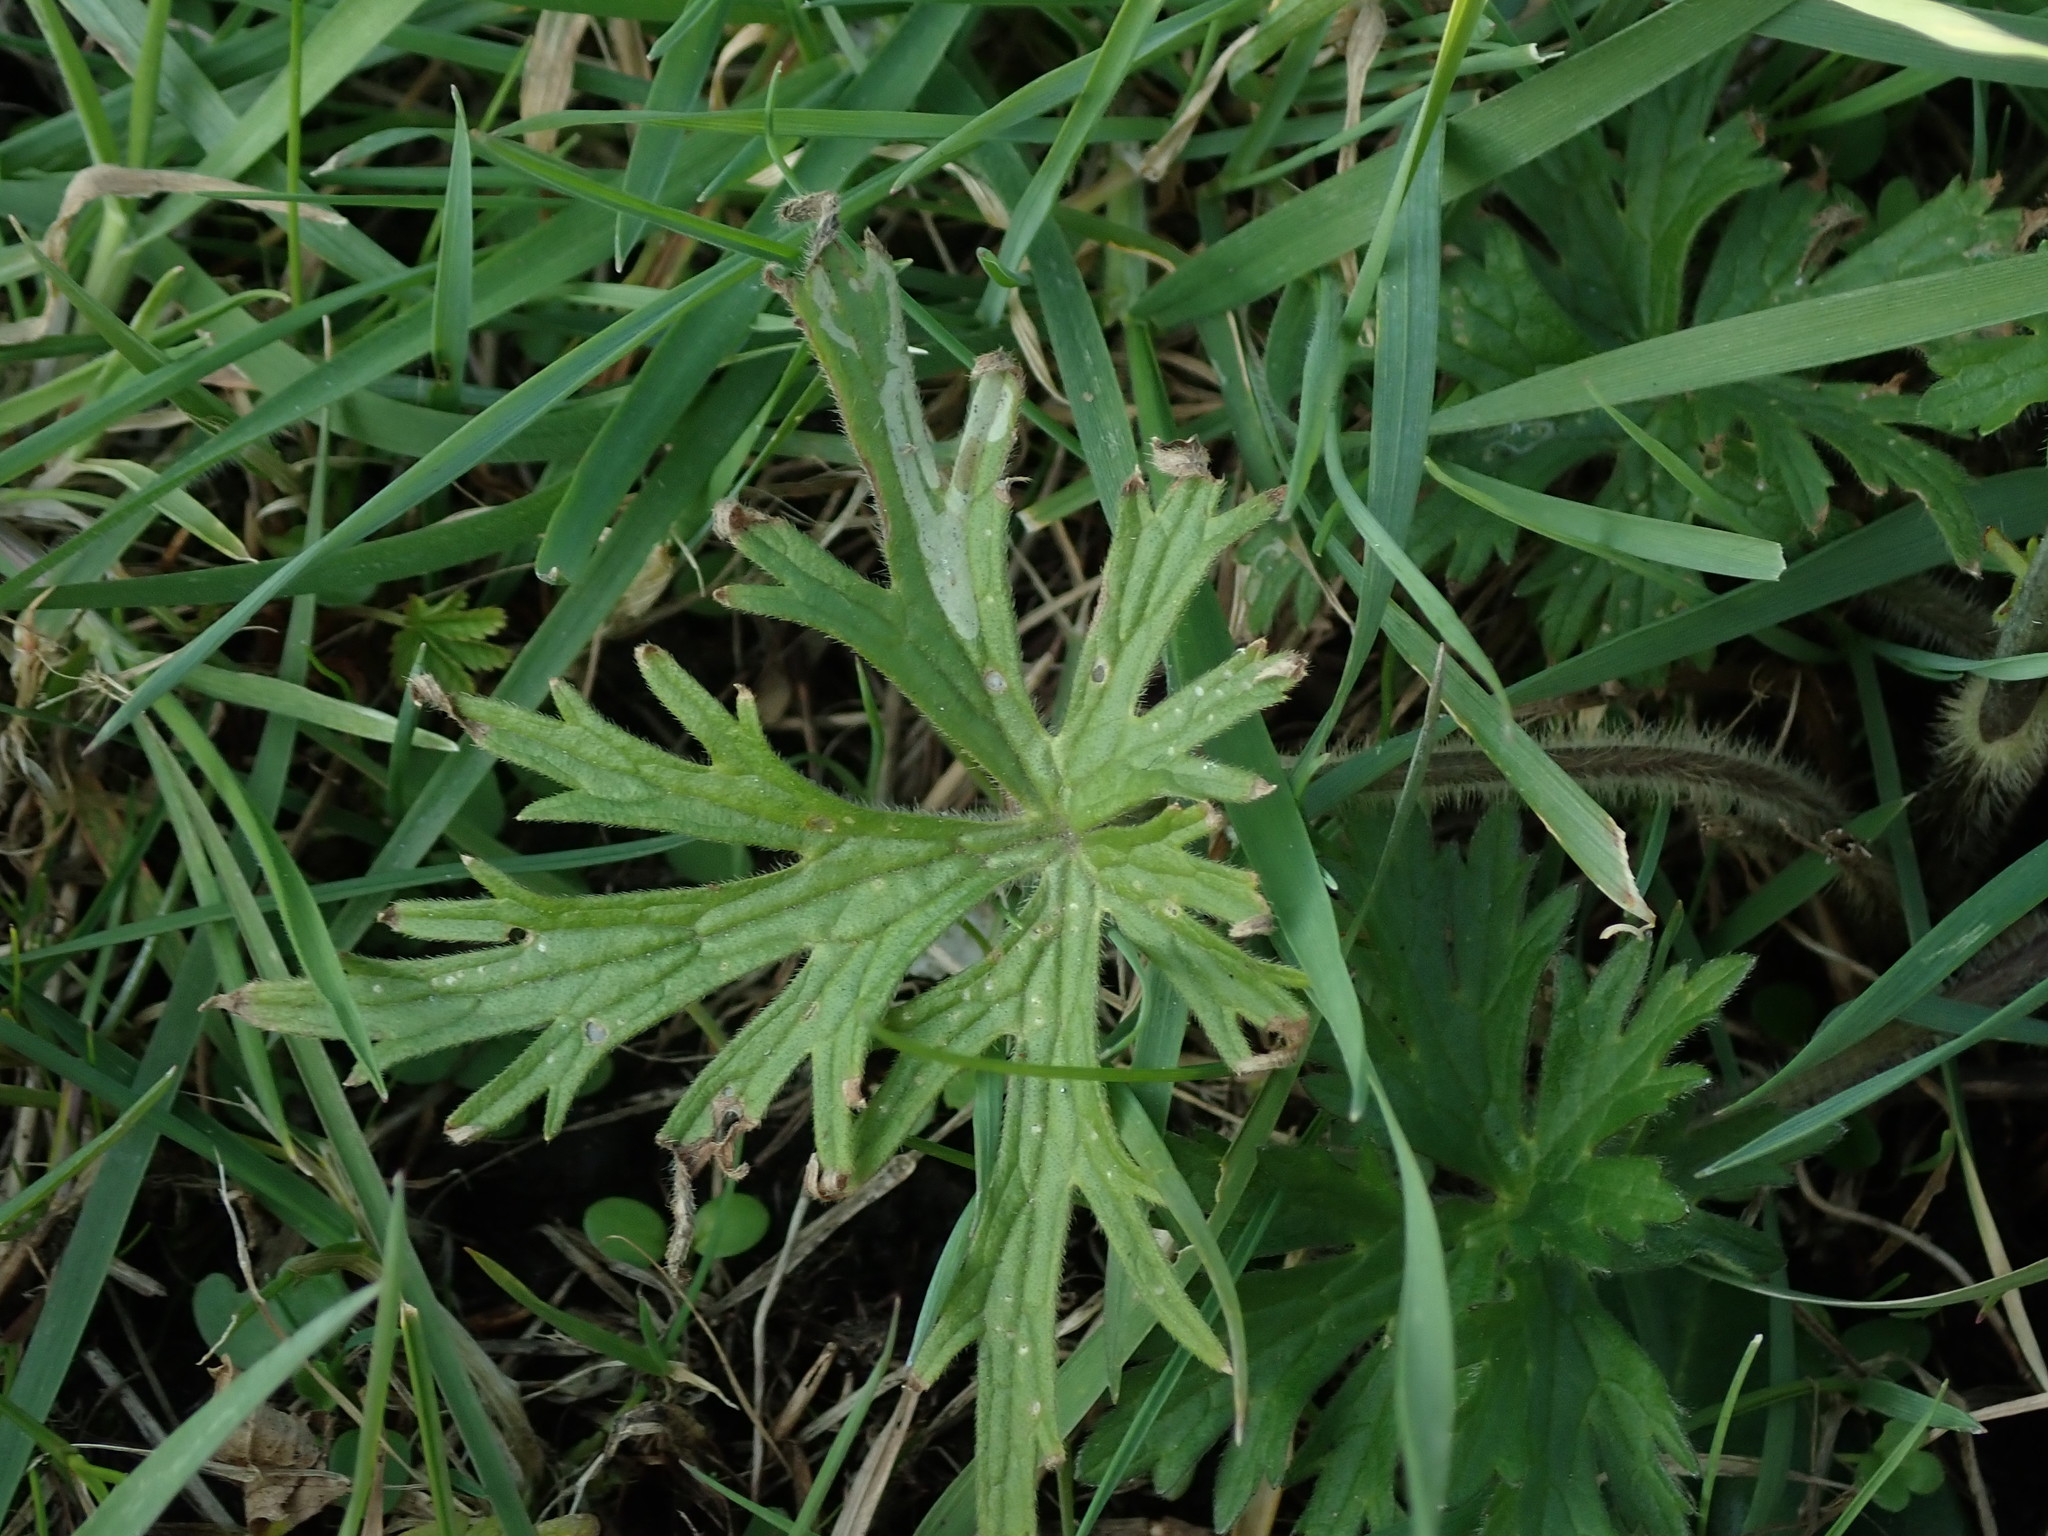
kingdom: Plantae
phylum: Tracheophyta
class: Magnoliopsida
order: Ranunculales
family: Ranunculaceae
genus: Ranunculus
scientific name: Ranunculus acris
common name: Meadow buttercup
